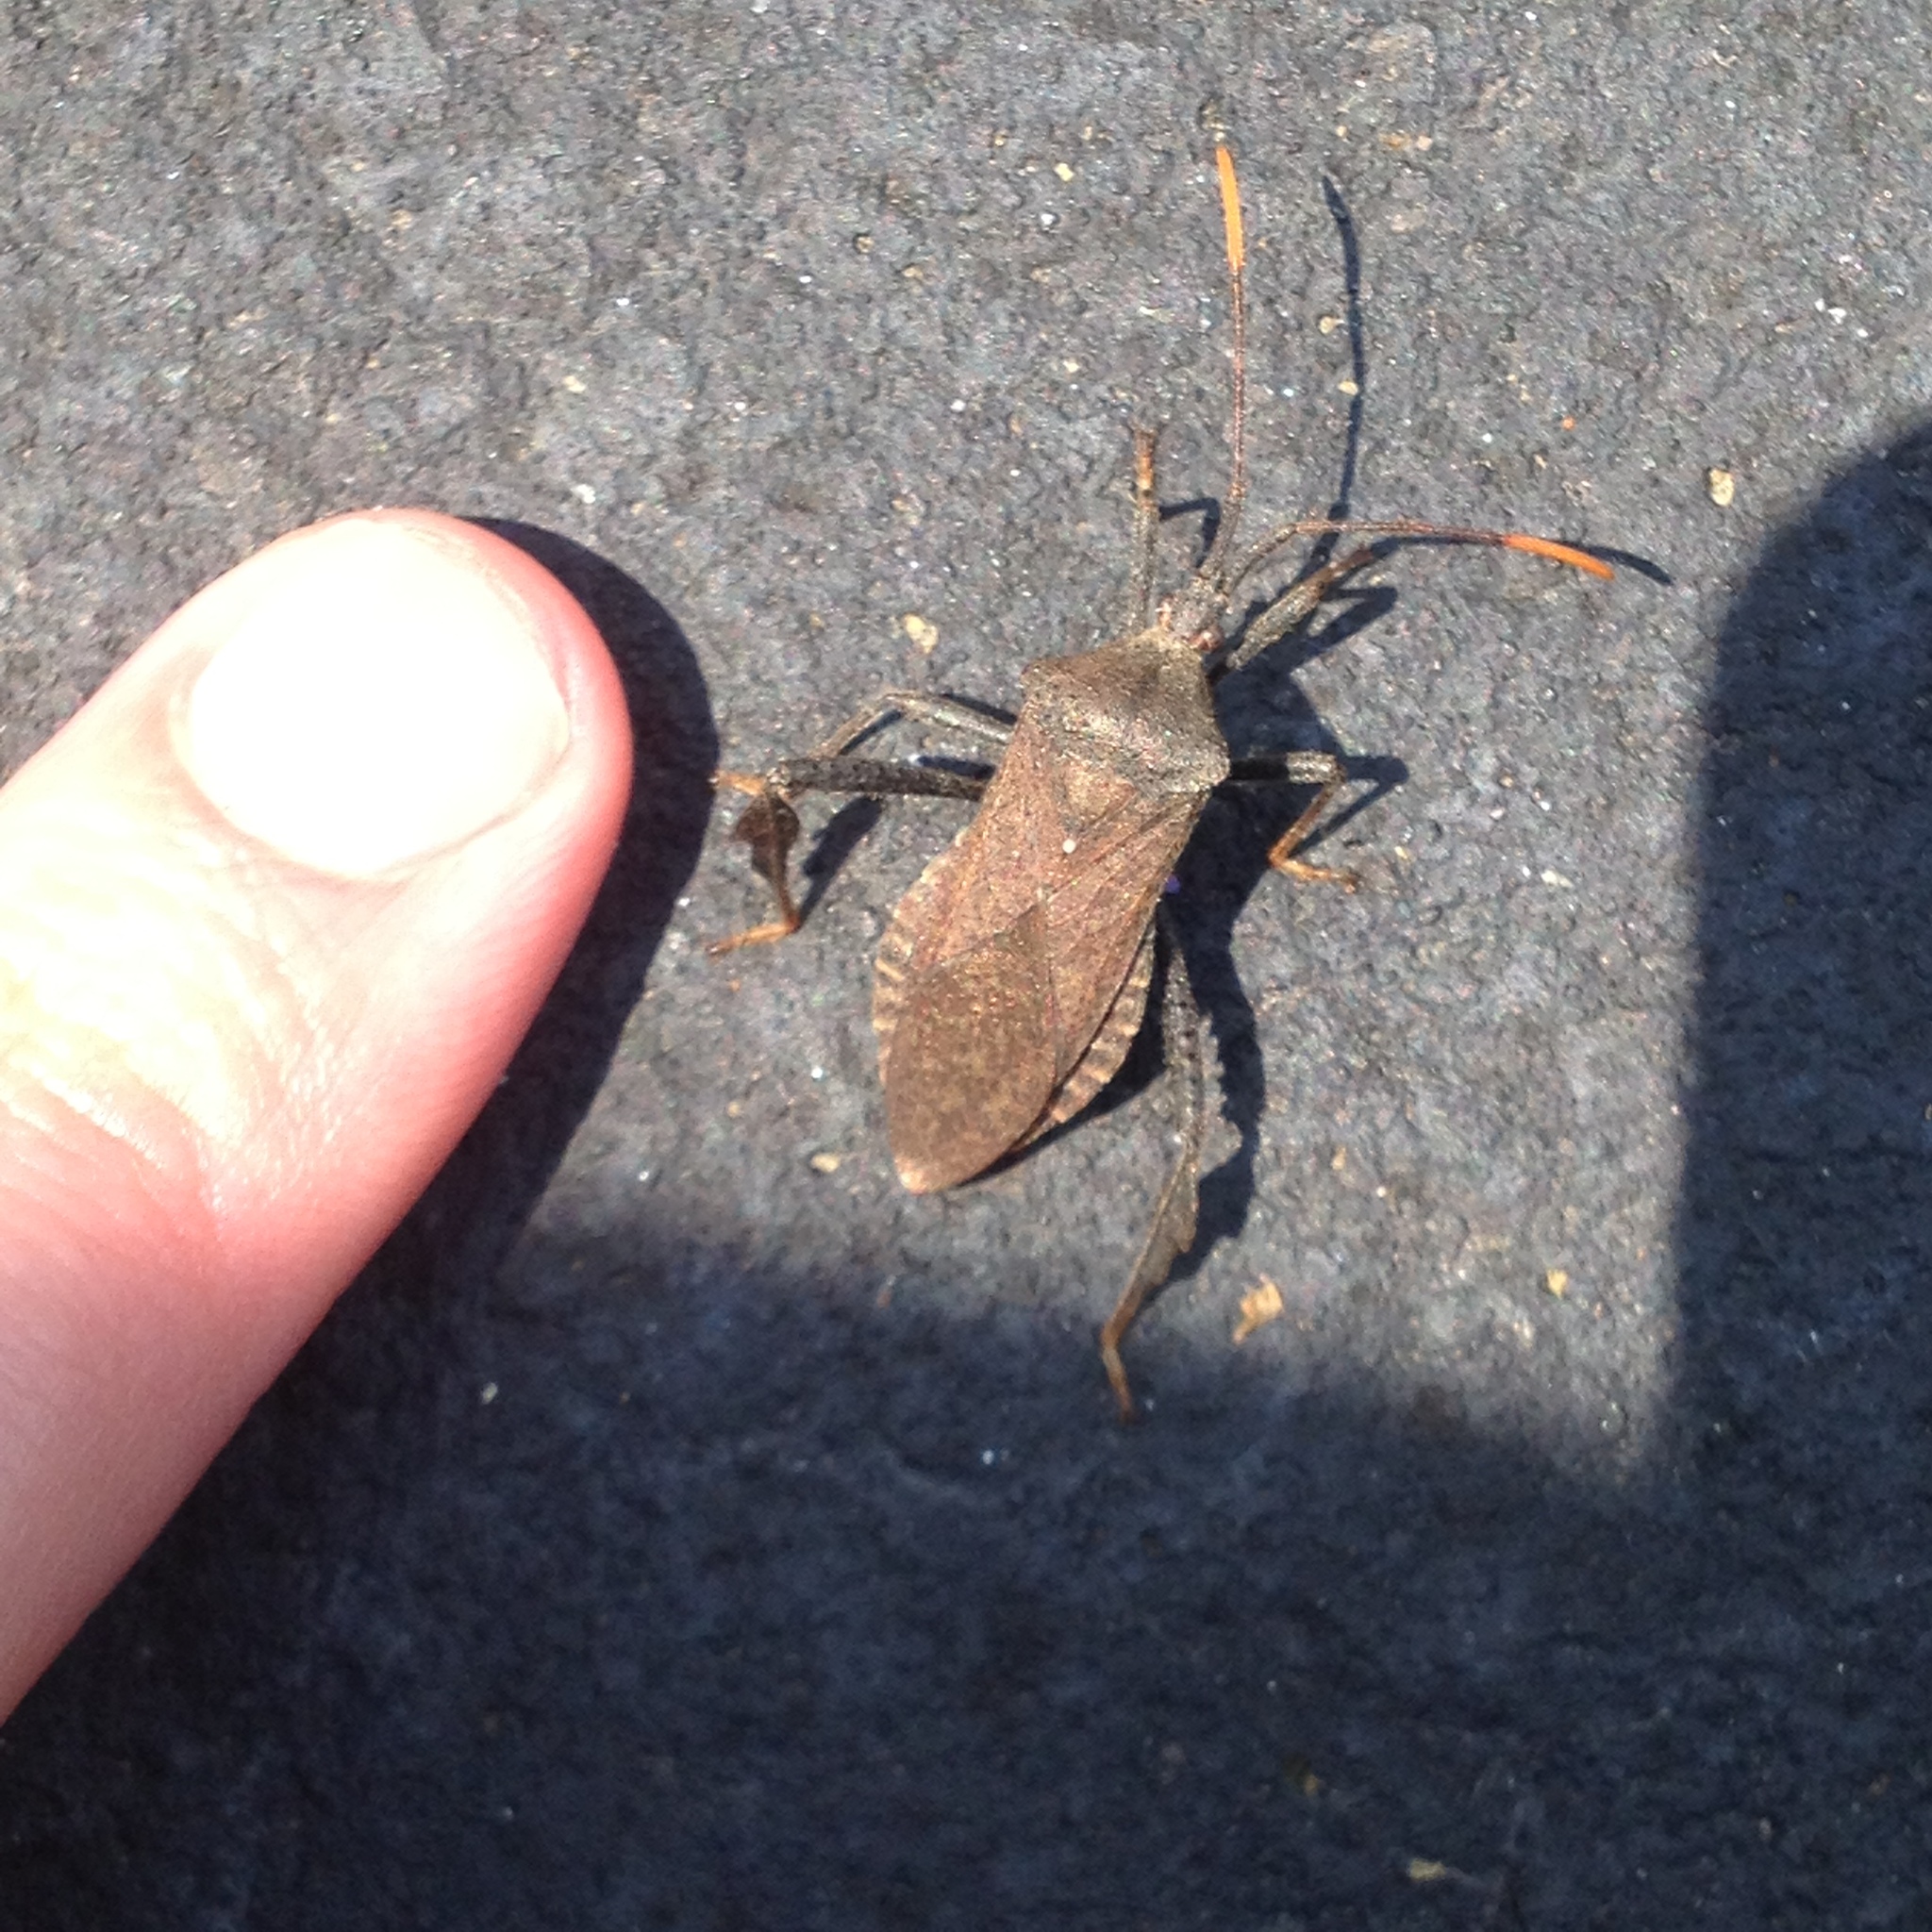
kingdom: Animalia
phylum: Arthropoda
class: Insecta
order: Hemiptera
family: Coreidae
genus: Acanthocephala
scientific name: Acanthocephala terminalis
